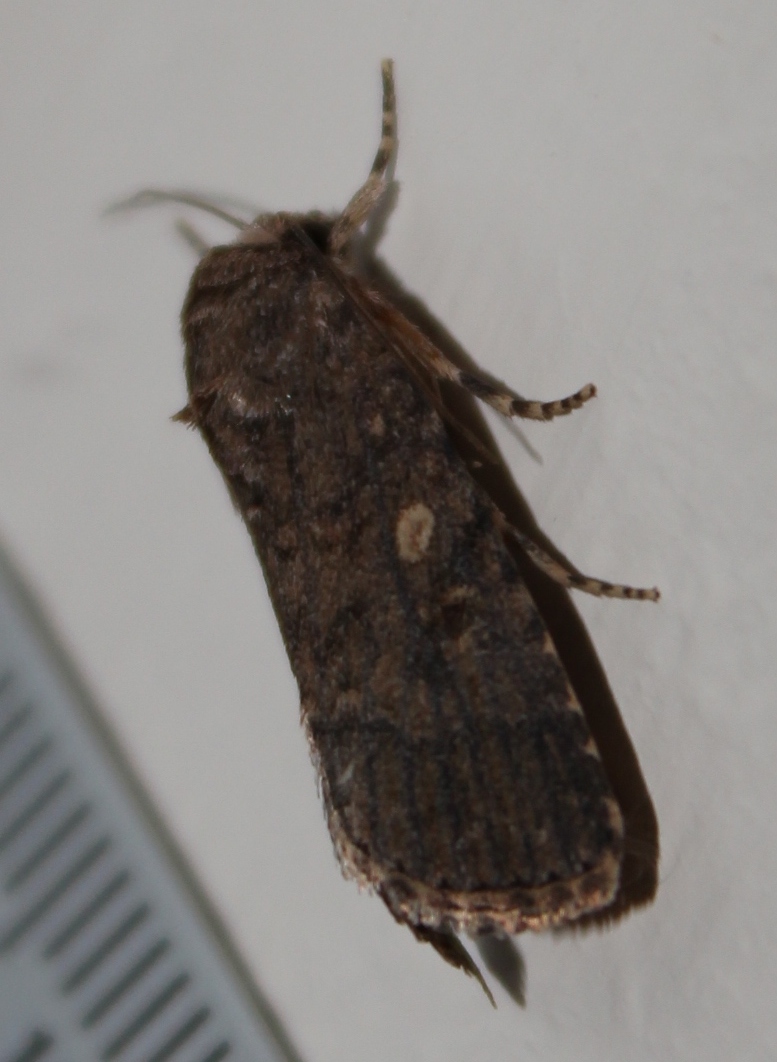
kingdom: Animalia
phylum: Arthropoda
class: Insecta
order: Lepidoptera
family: Noctuidae
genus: Spodoptera
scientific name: Spodoptera cilium
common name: Dark mottled willow
